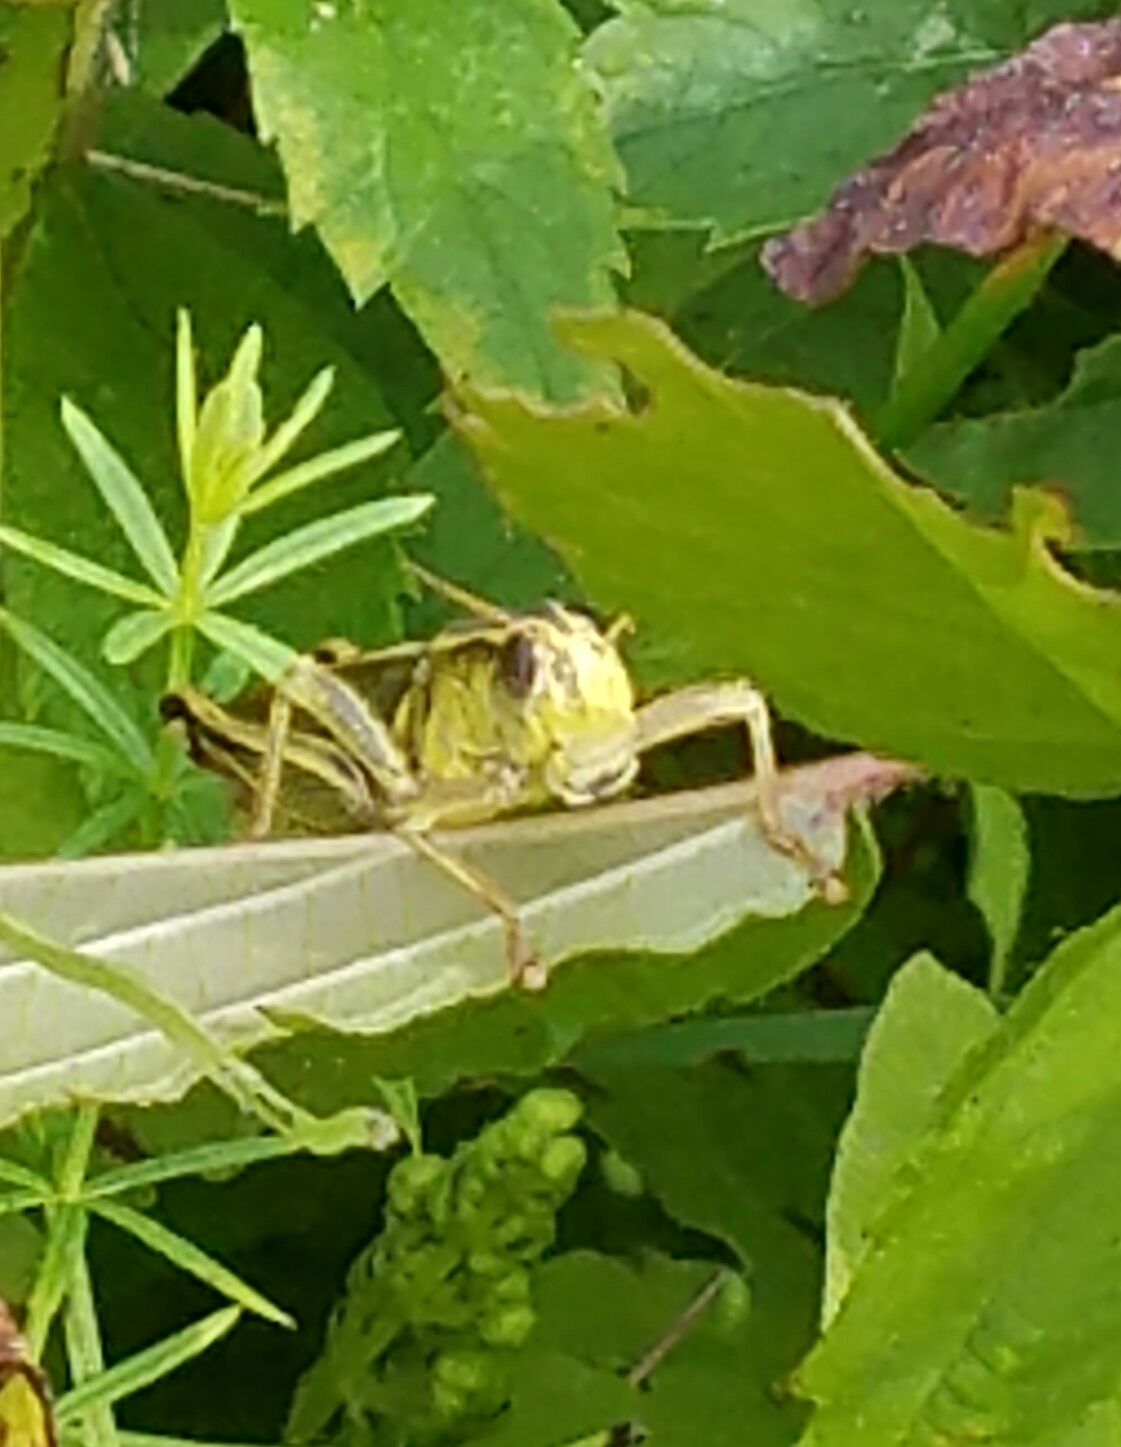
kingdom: Animalia
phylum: Arthropoda
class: Insecta
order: Orthoptera
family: Acrididae
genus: Melanoplus
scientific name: Melanoplus bivittatus
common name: Two-striped grasshopper
